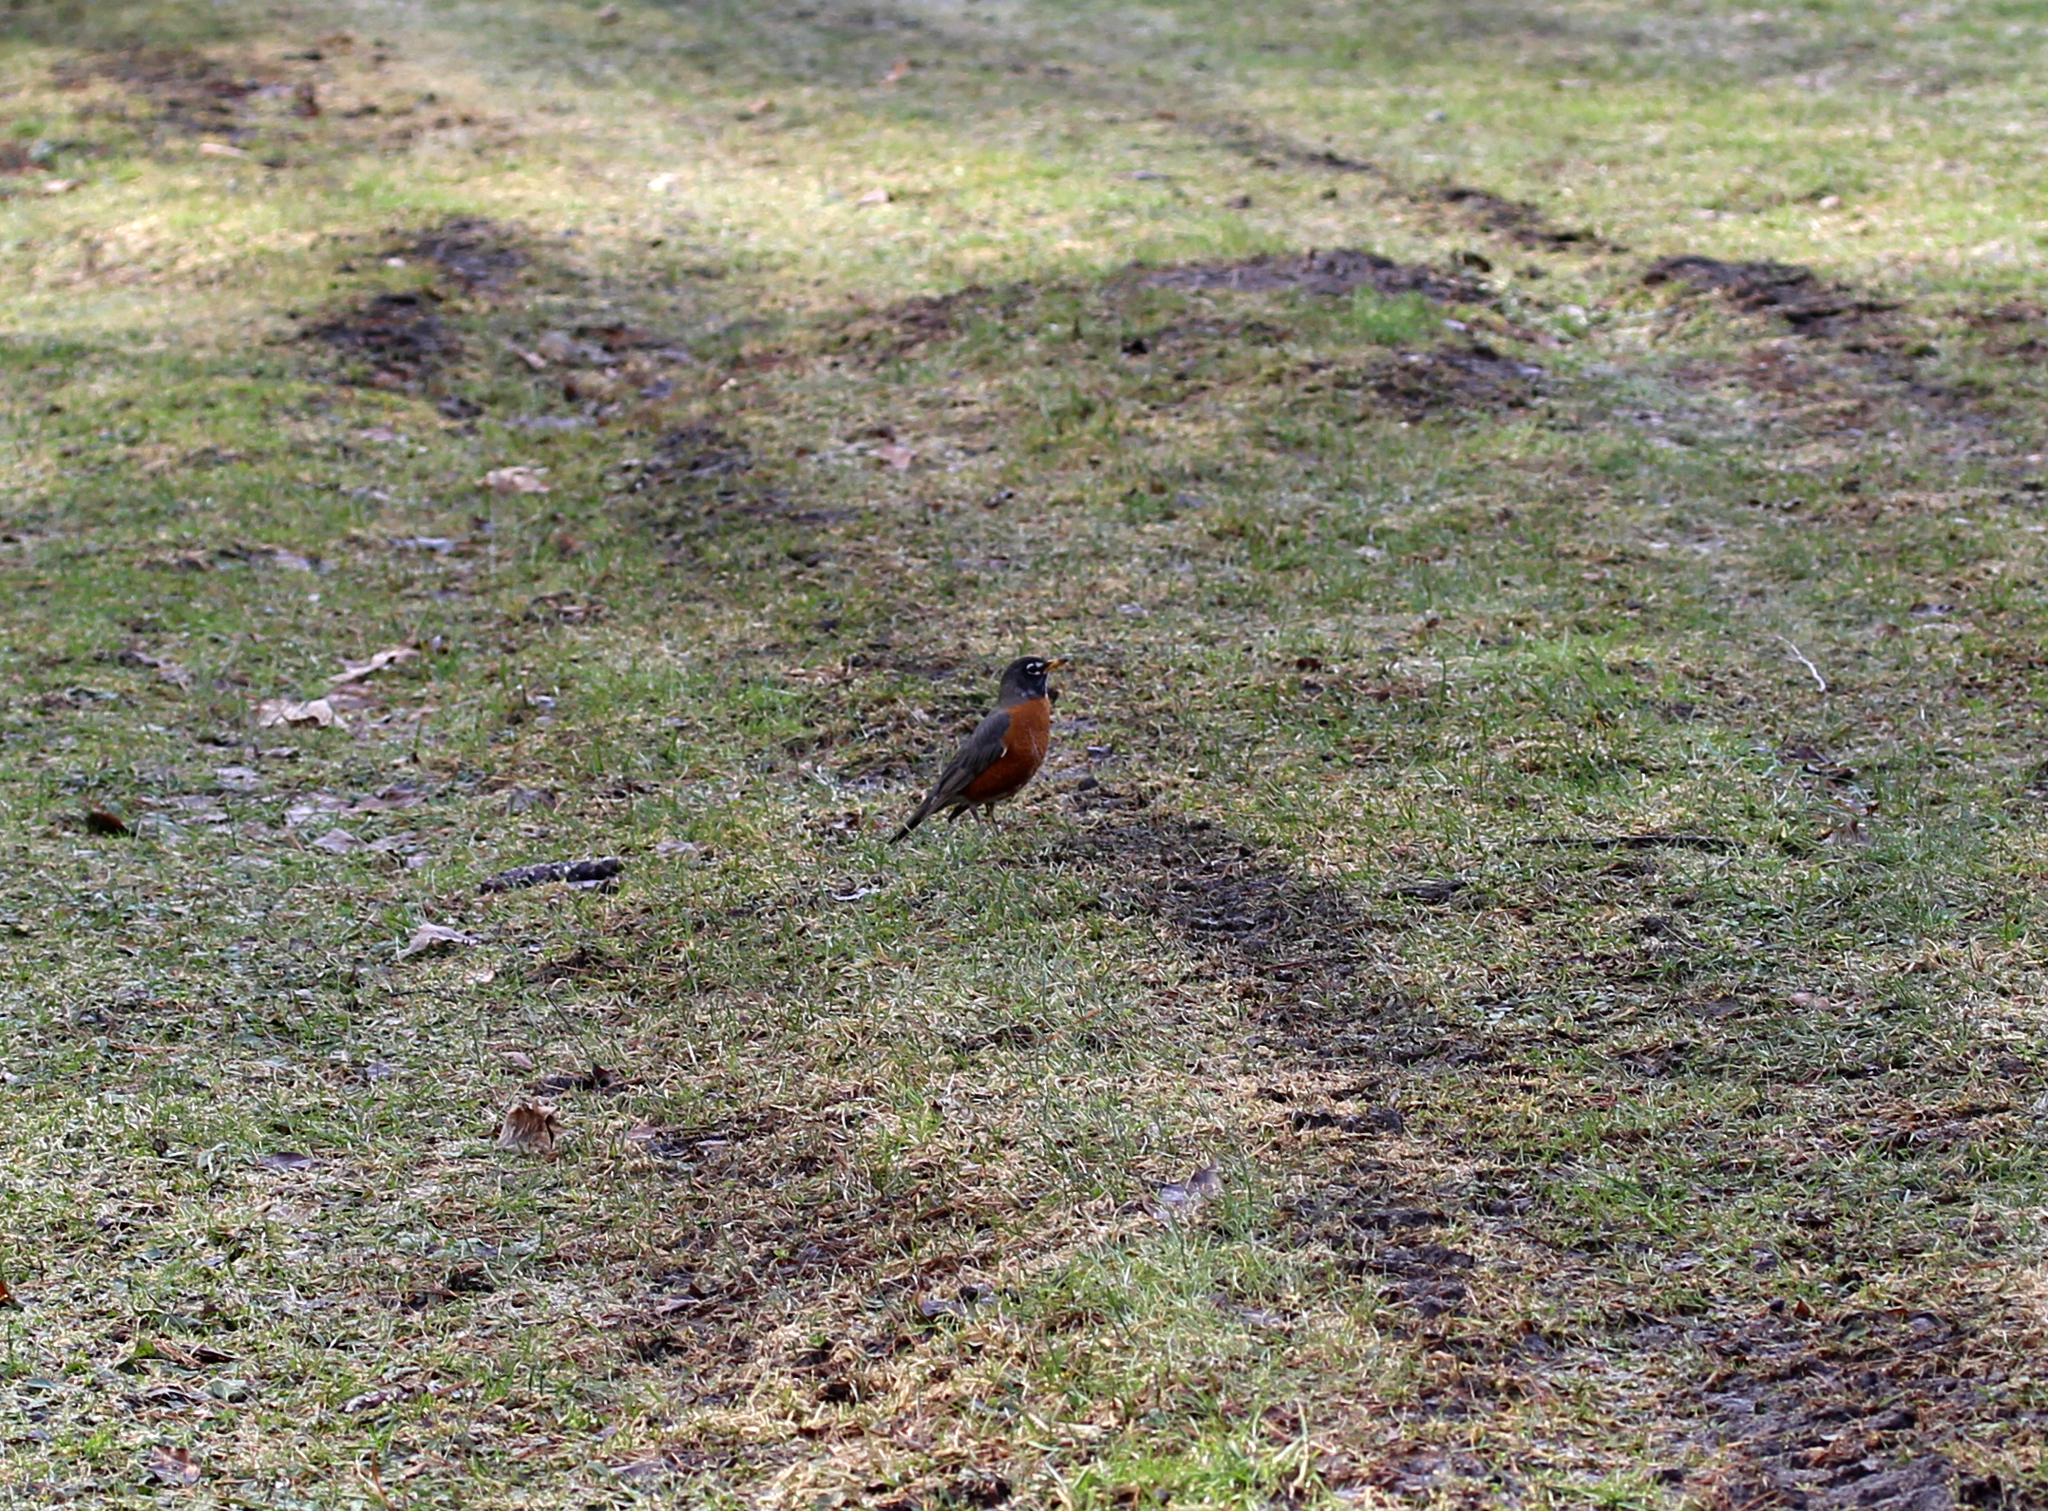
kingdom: Animalia
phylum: Chordata
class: Aves
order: Passeriformes
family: Turdidae
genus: Turdus
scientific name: Turdus migratorius
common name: American robin
